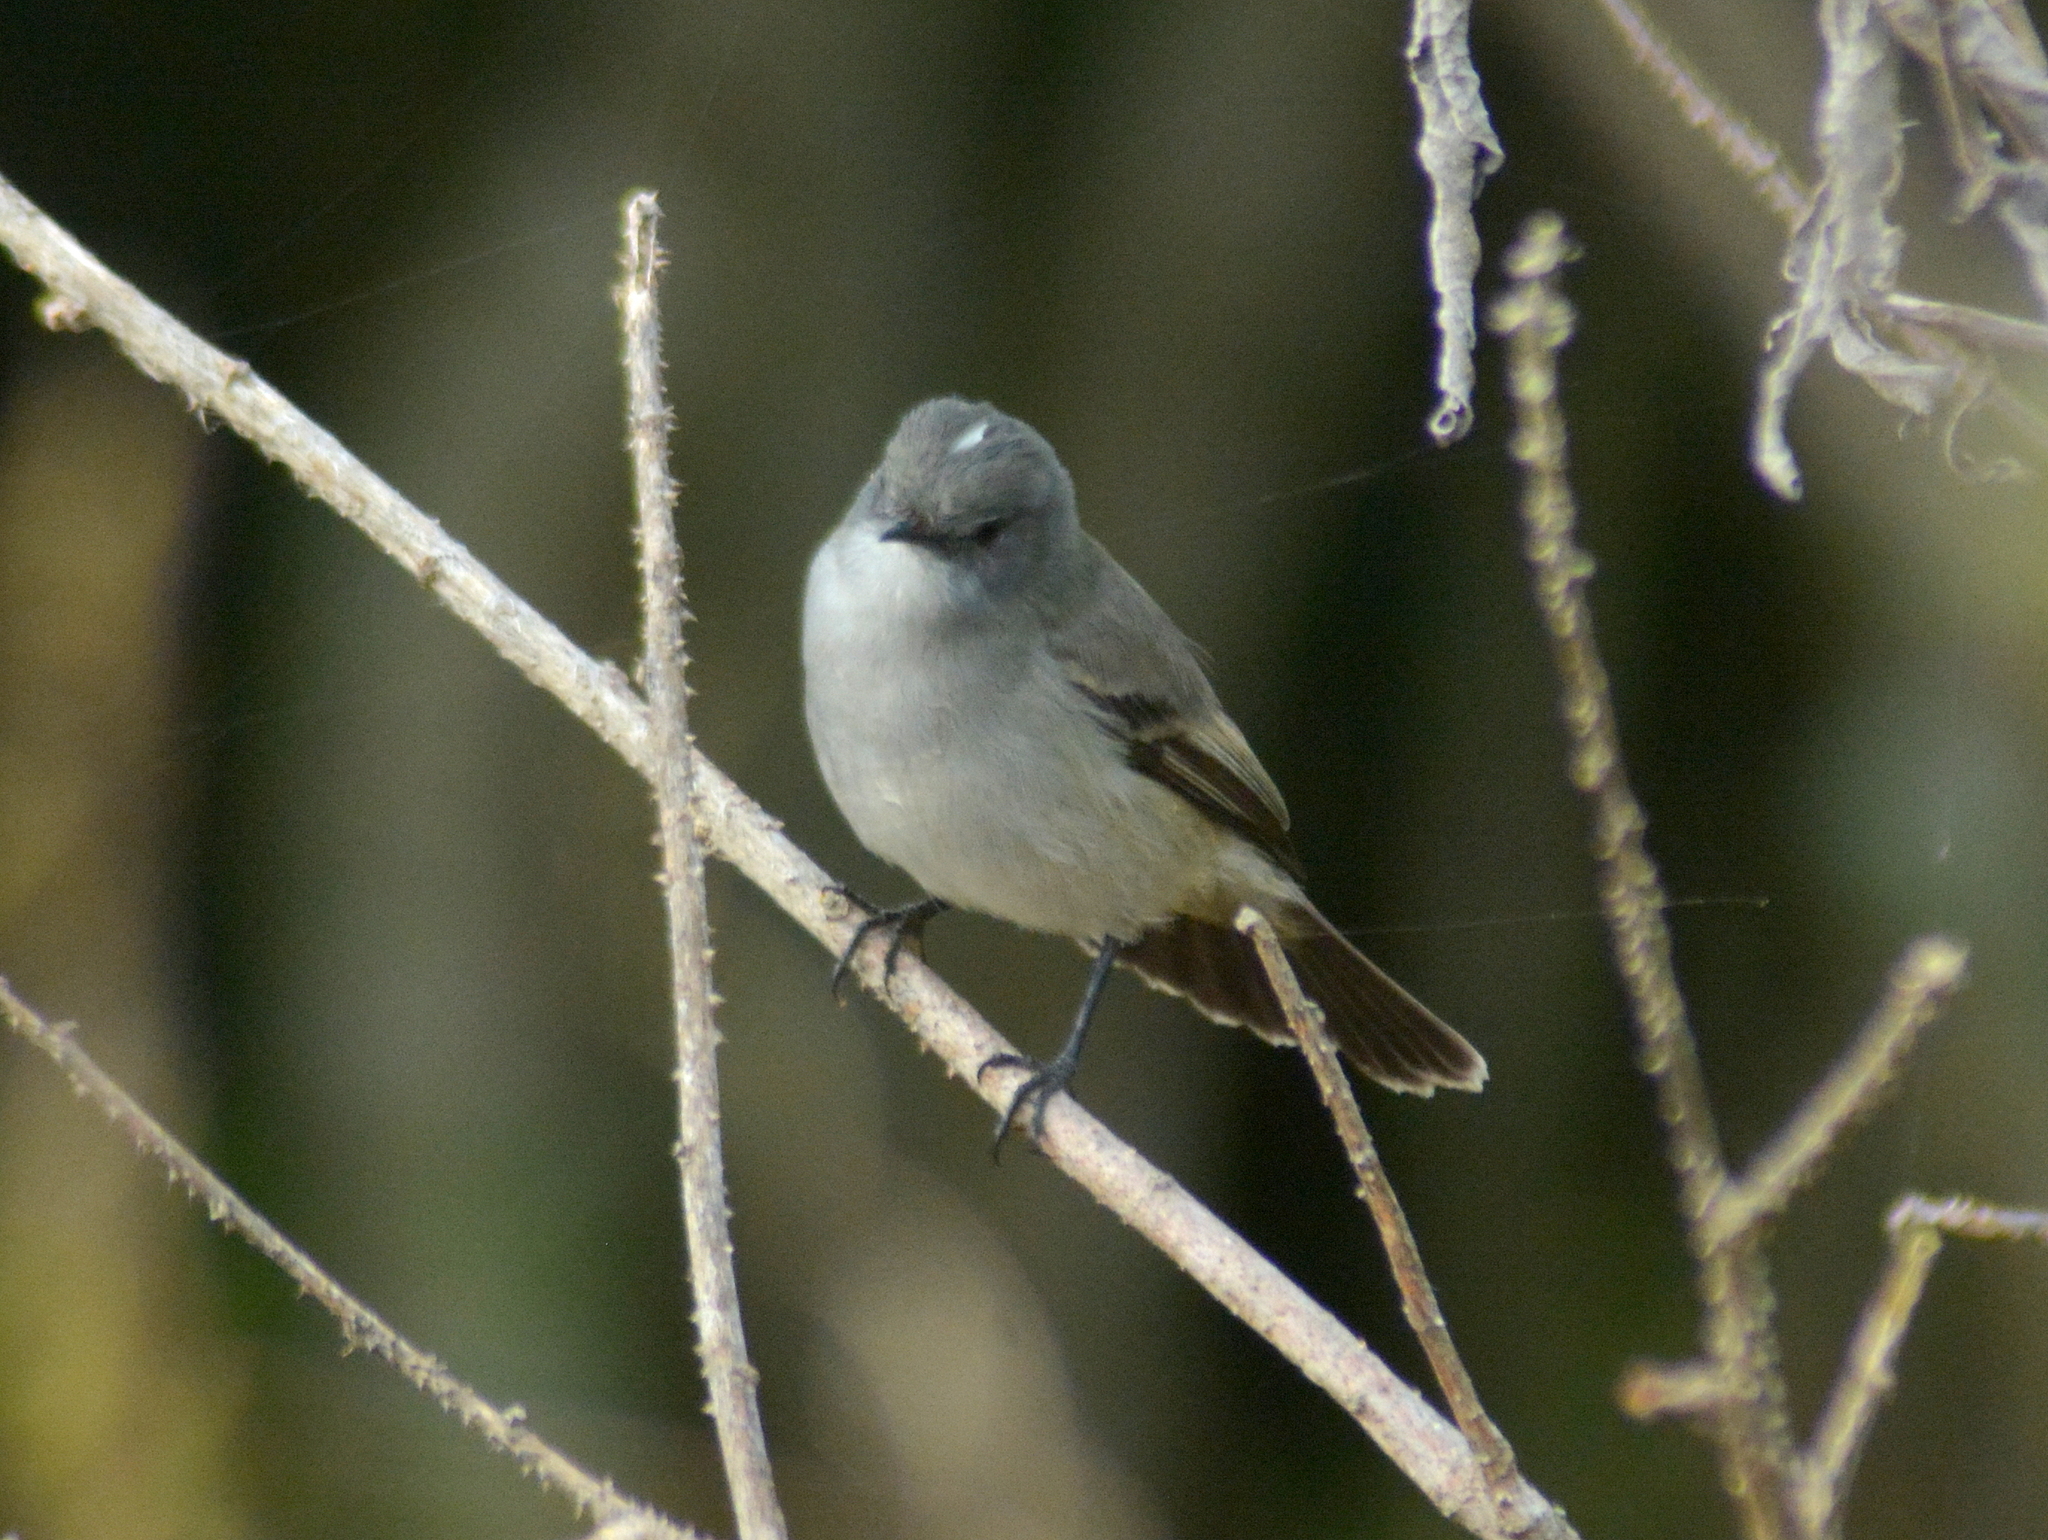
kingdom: Animalia
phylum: Chordata
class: Aves
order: Passeriformes
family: Tyrannidae
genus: Serpophaga
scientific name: Serpophaga nigricans
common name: Sooty tyrannulet
